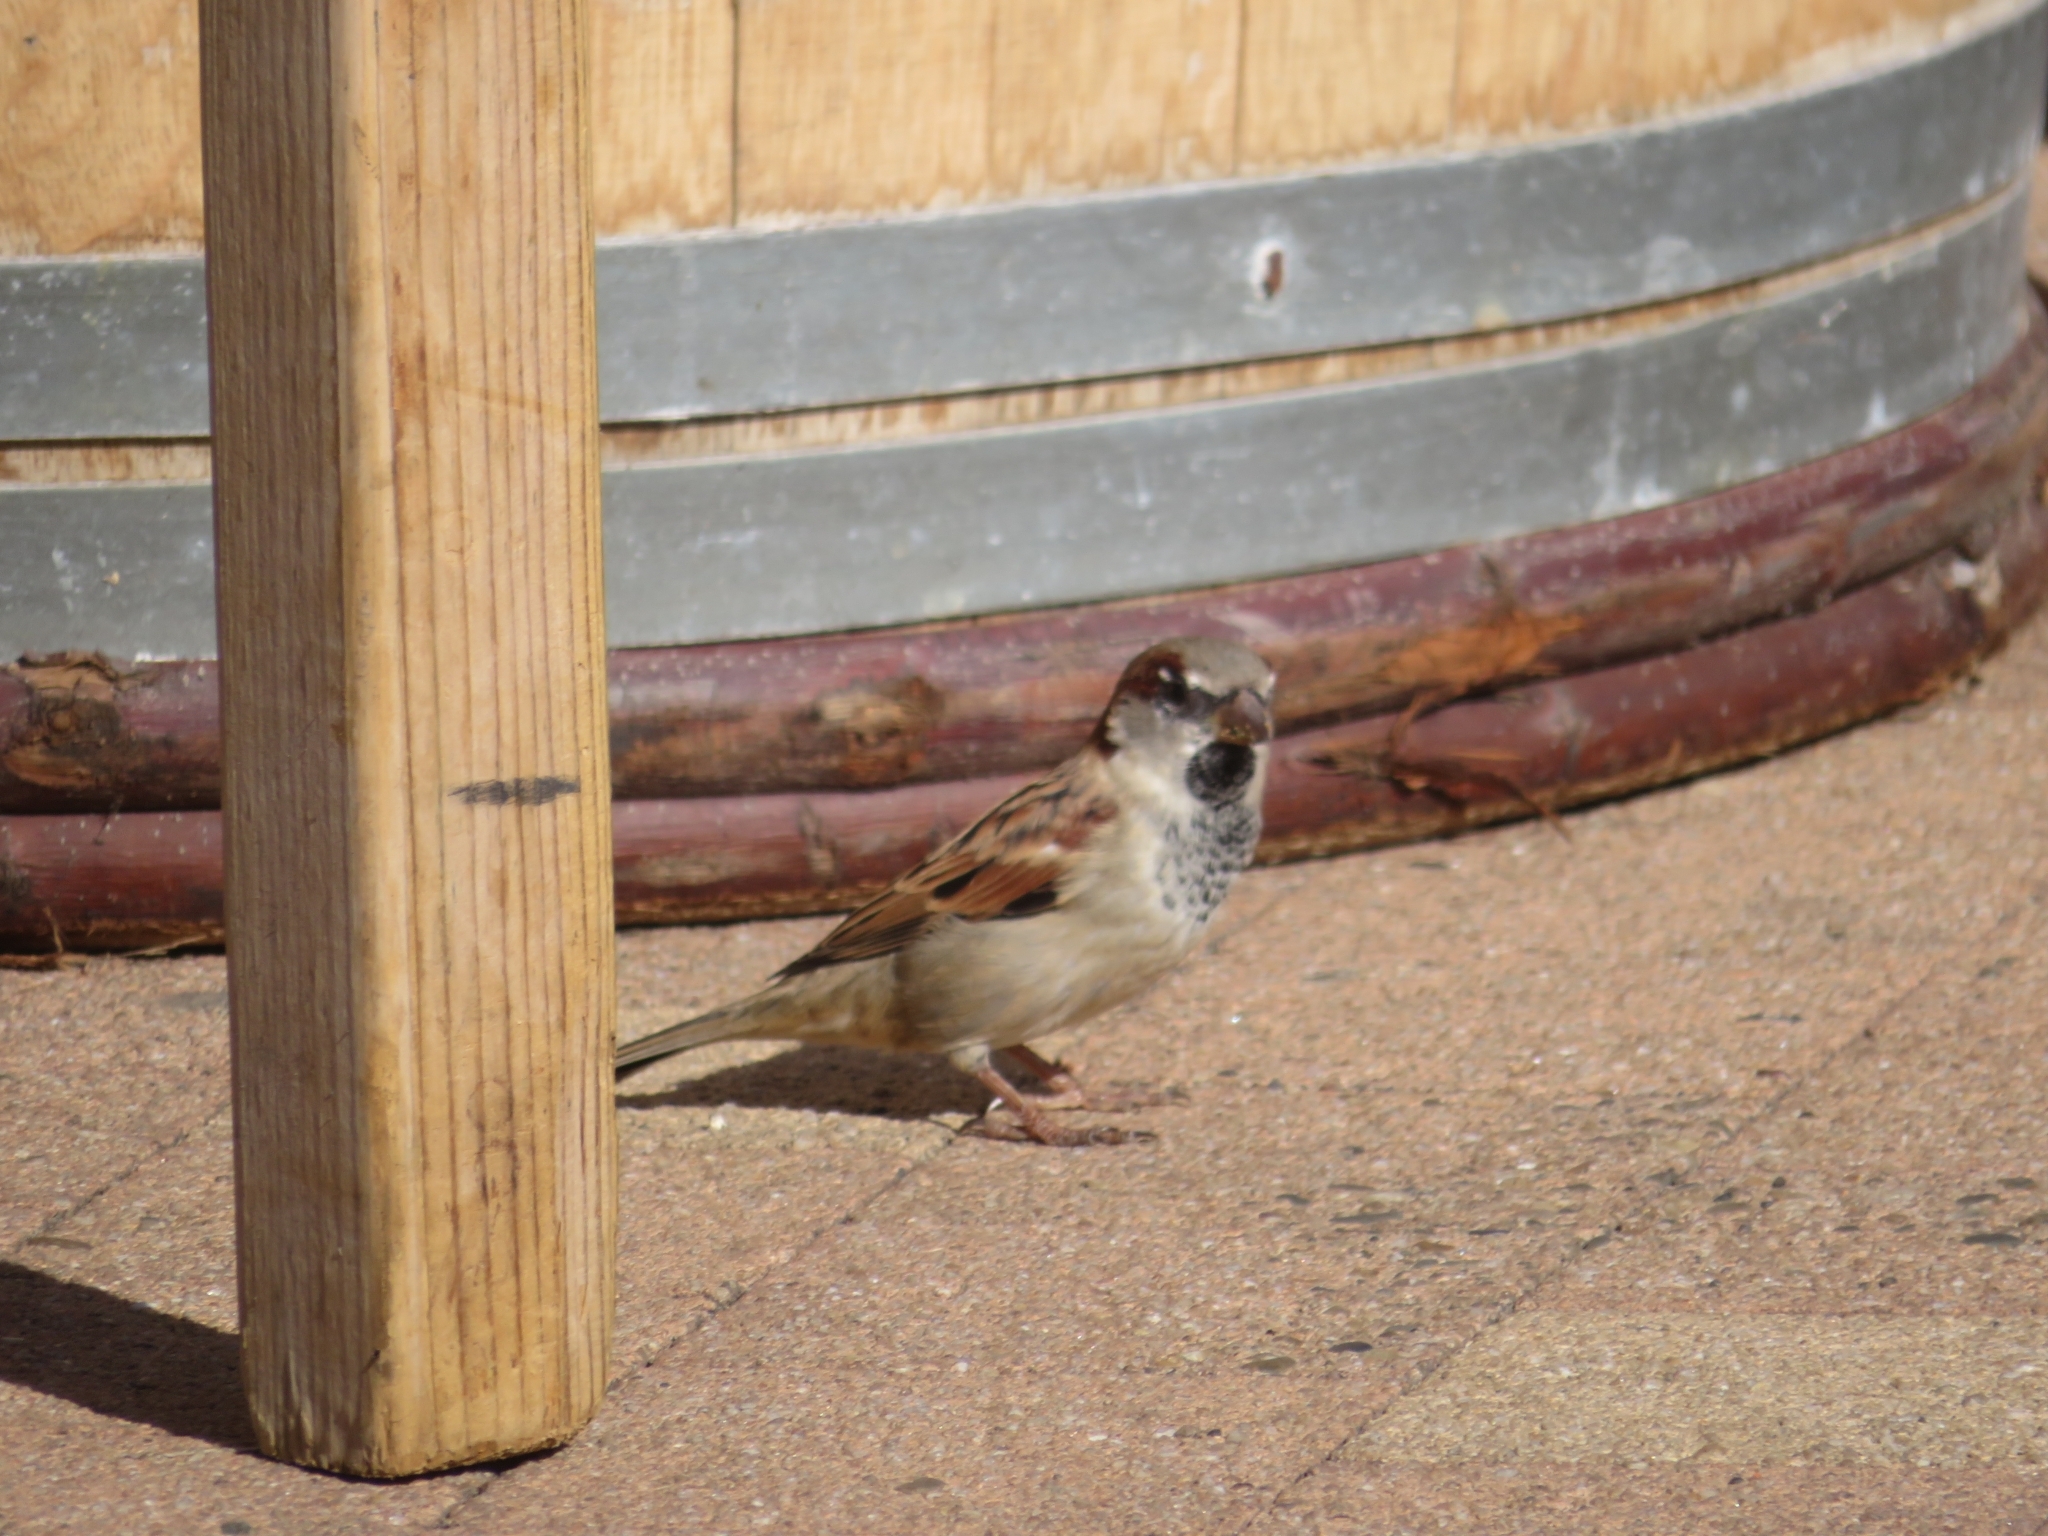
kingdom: Animalia
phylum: Chordata
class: Aves
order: Passeriformes
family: Passeridae
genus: Passer
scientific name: Passer domesticus
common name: House sparrow
